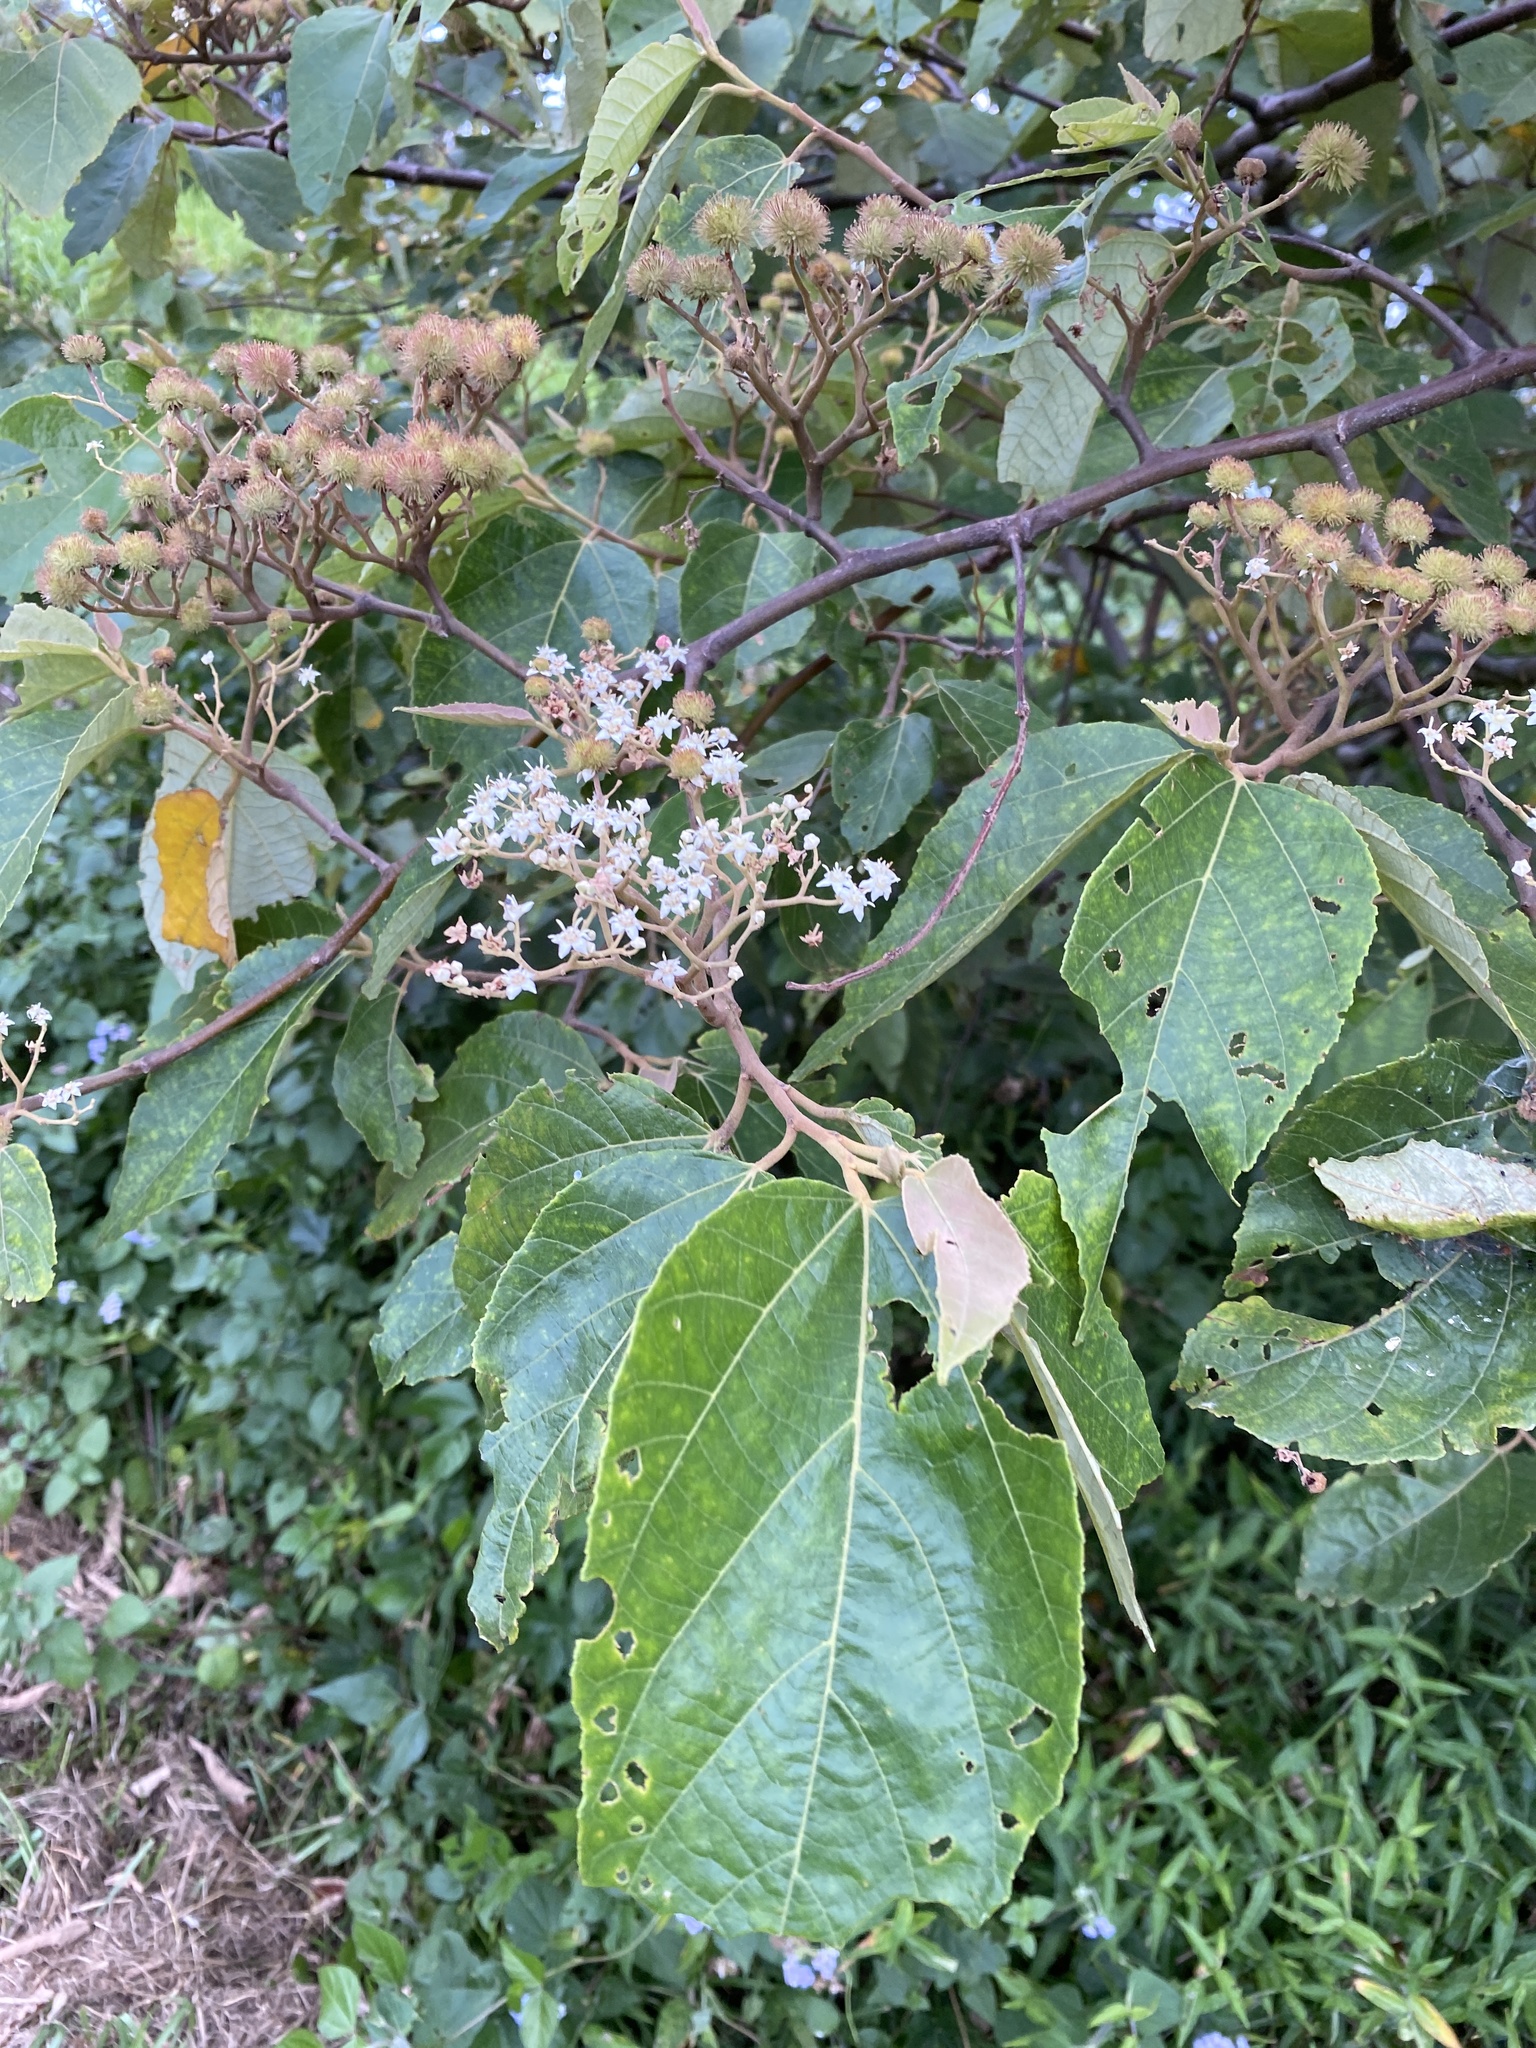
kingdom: Plantae
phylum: Tracheophyta
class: Magnoliopsida
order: Malvales
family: Malvaceae
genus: Commersonia
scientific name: Commersonia bartramia
